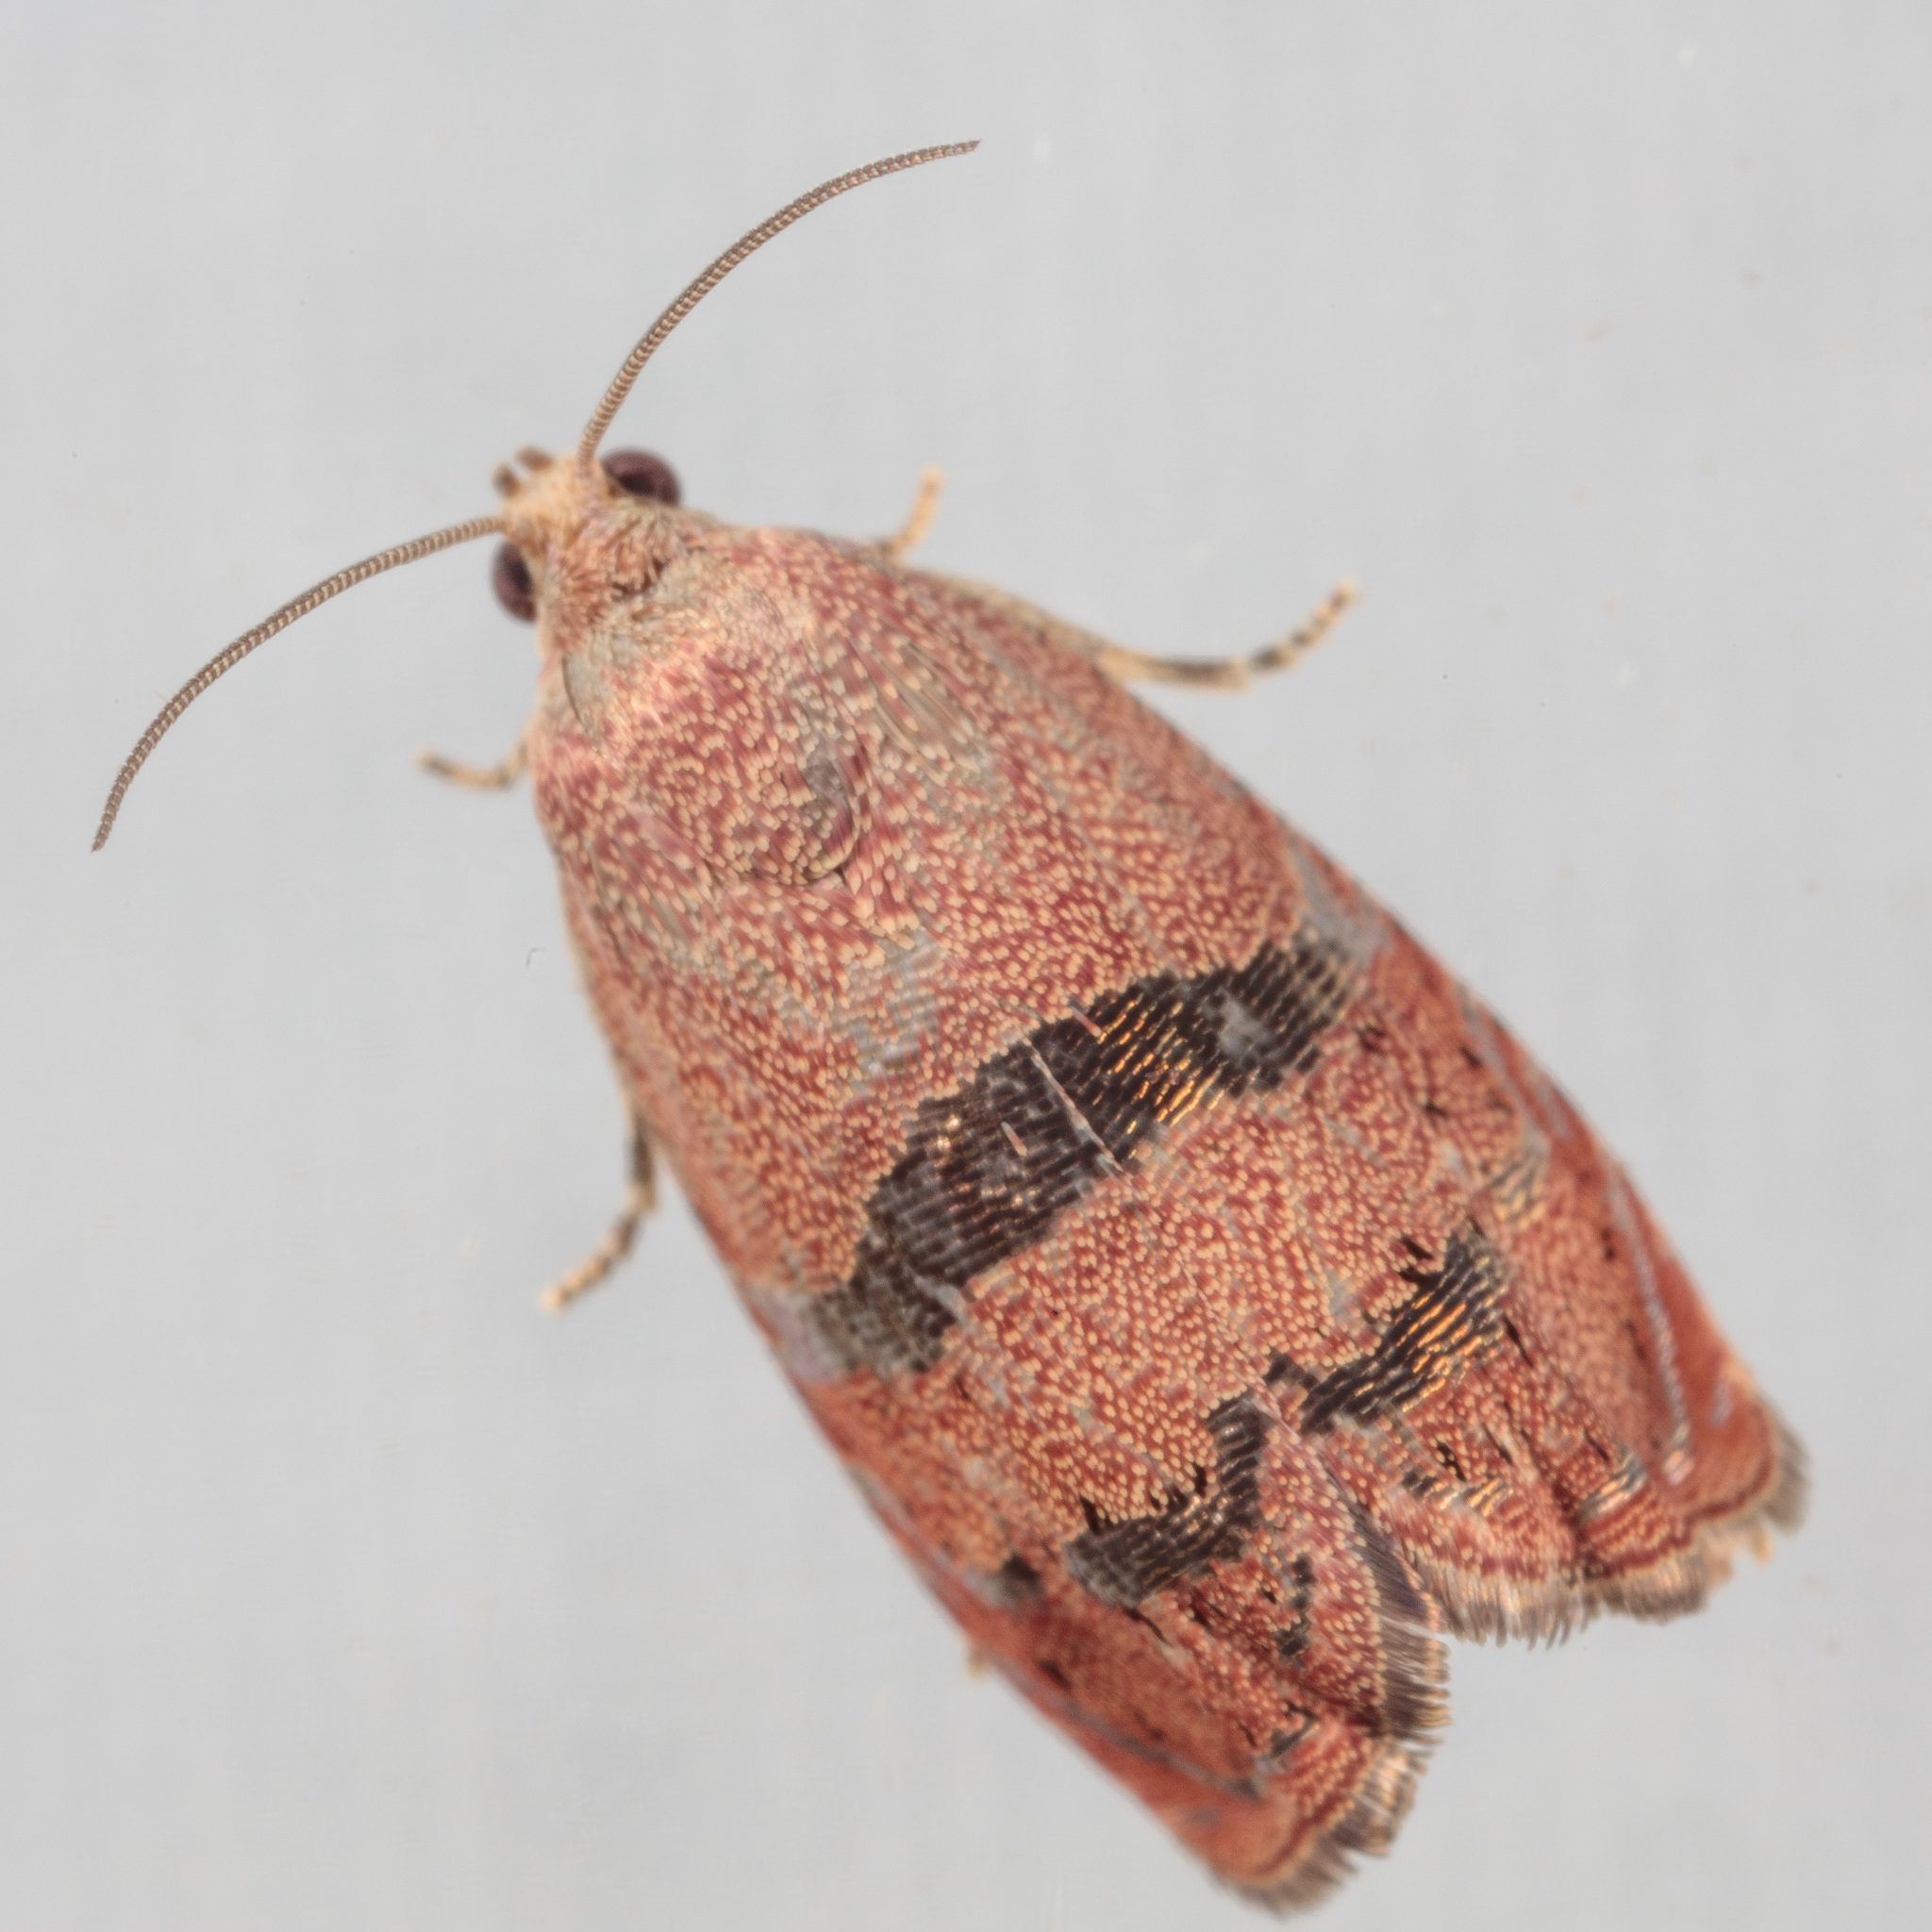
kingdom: Animalia
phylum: Arthropoda
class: Insecta
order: Lepidoptera
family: Tortricidae
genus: Cydia
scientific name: Cydia latiferreana
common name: Filbertworm moth
